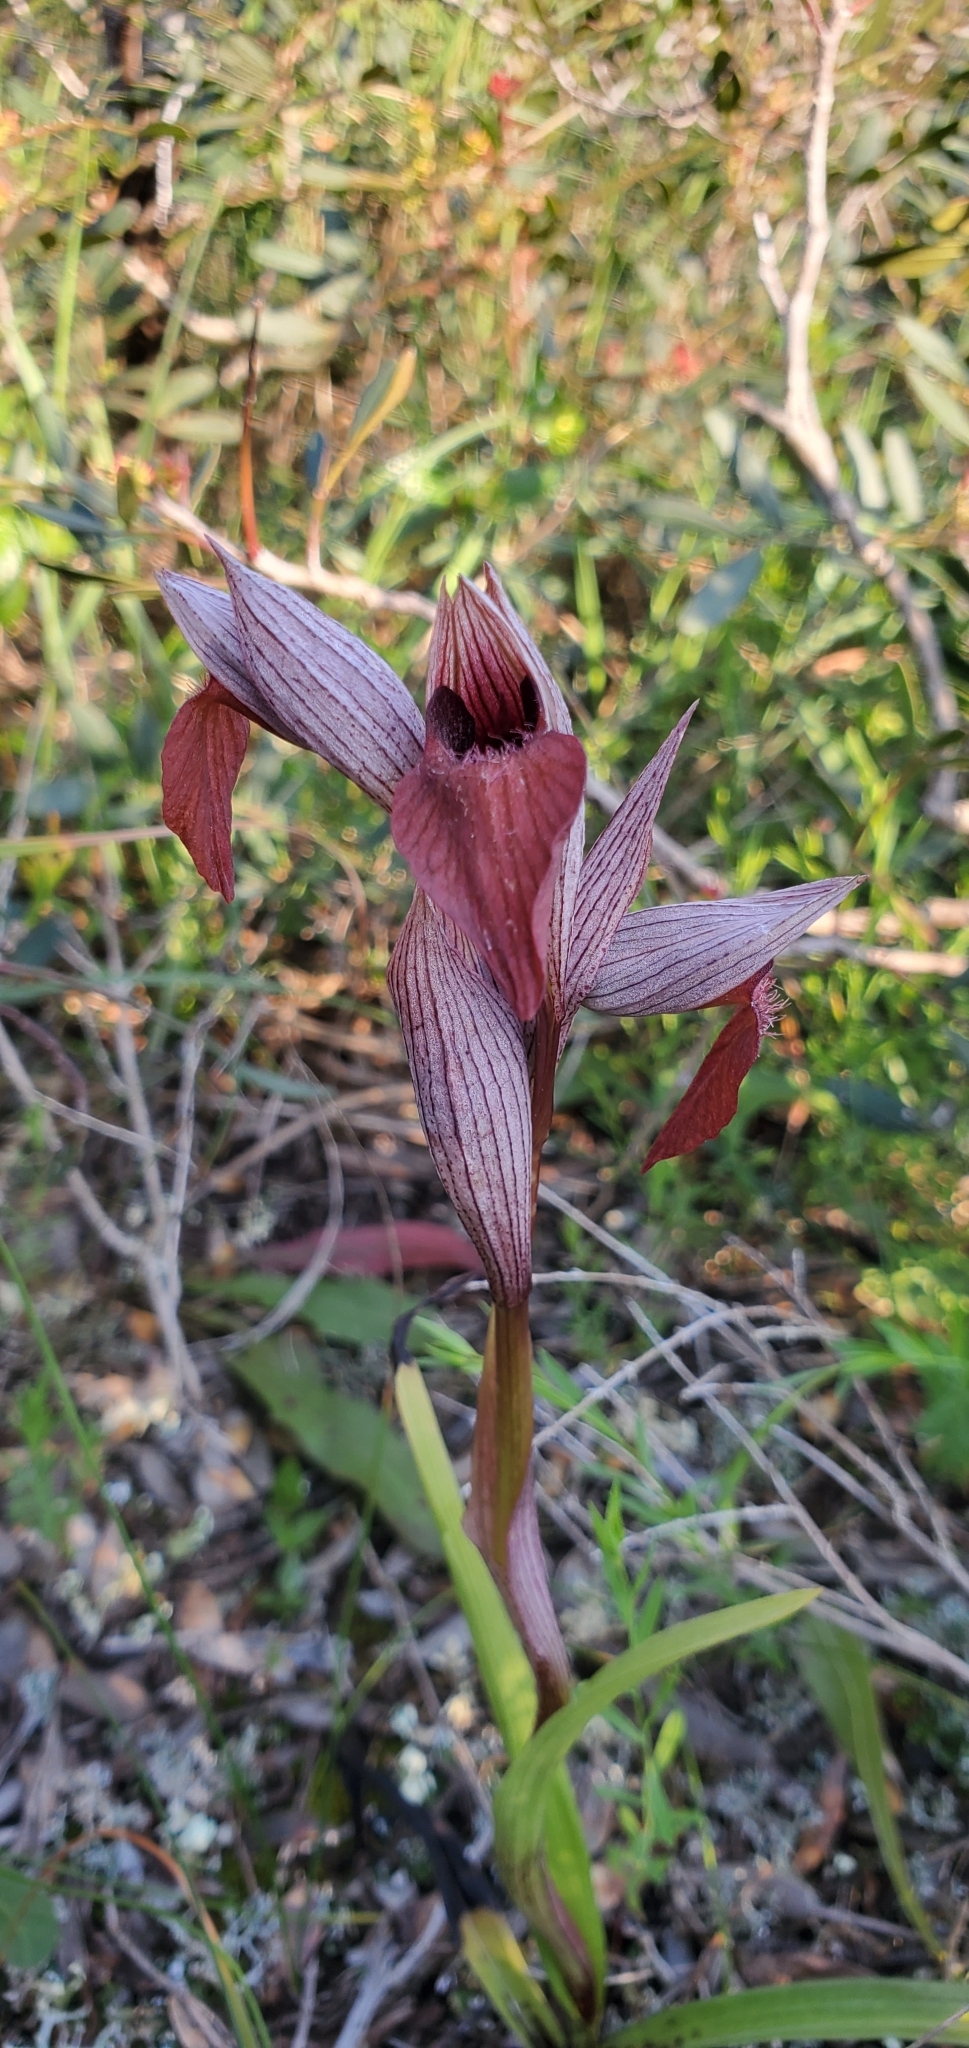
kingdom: Plantae
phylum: Tracheophyta
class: Liliopsida
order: Asparagales
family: Orchidaceae
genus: Serapias
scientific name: Serapias vomeracea
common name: Long-lipped tongue-orchid
